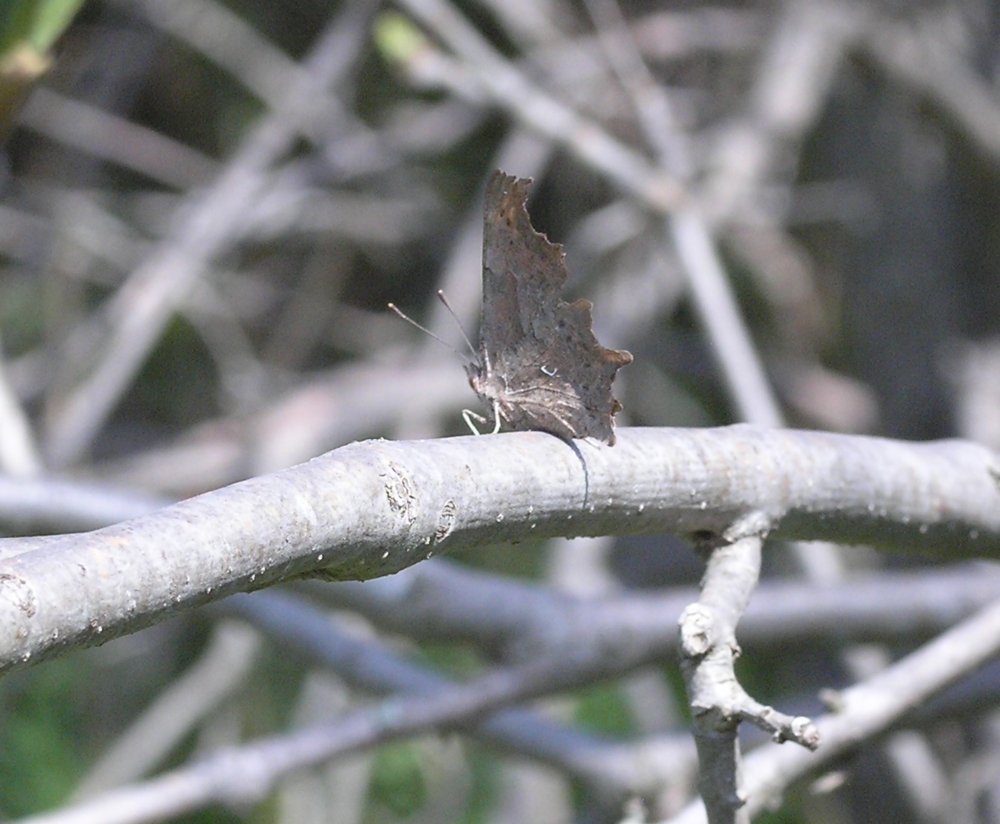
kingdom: Animalia
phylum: Arthropoda
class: Insecta
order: Lepidoptera
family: Nymphalidae
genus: Polygonia
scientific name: Polygonia c-album
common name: Comma
